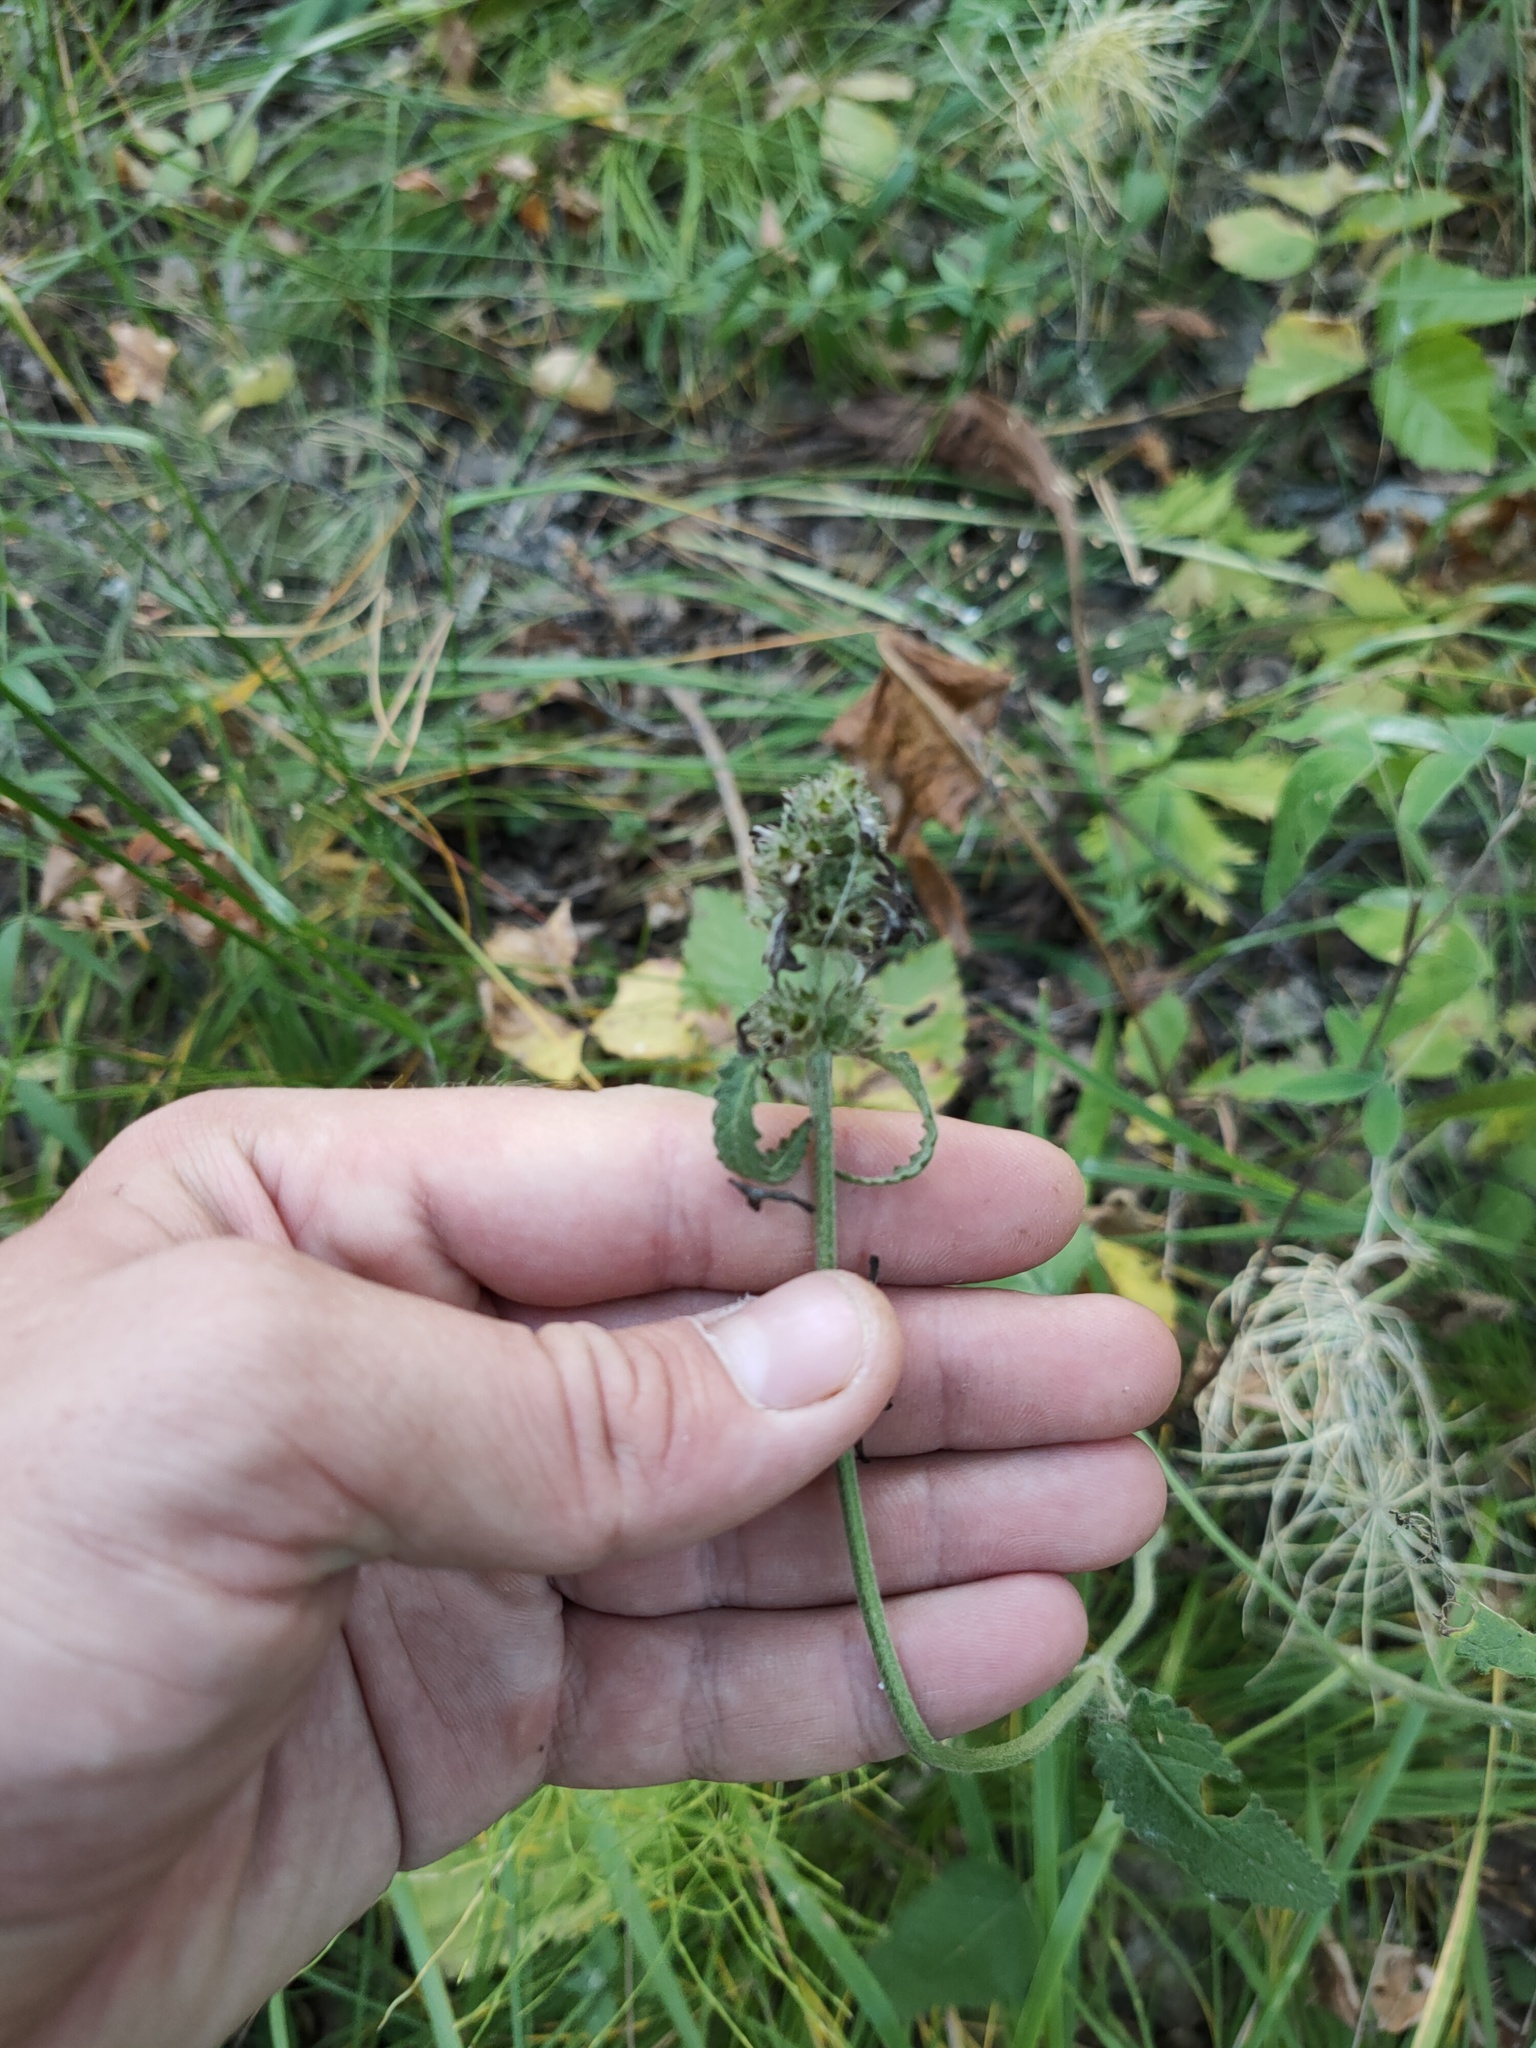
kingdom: Plantae
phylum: Tracheophyta
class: Magnoliopsida
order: Lamiales
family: Lamiaceae
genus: Betonica
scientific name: Betonica officinalis
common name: Bishop's-wort
